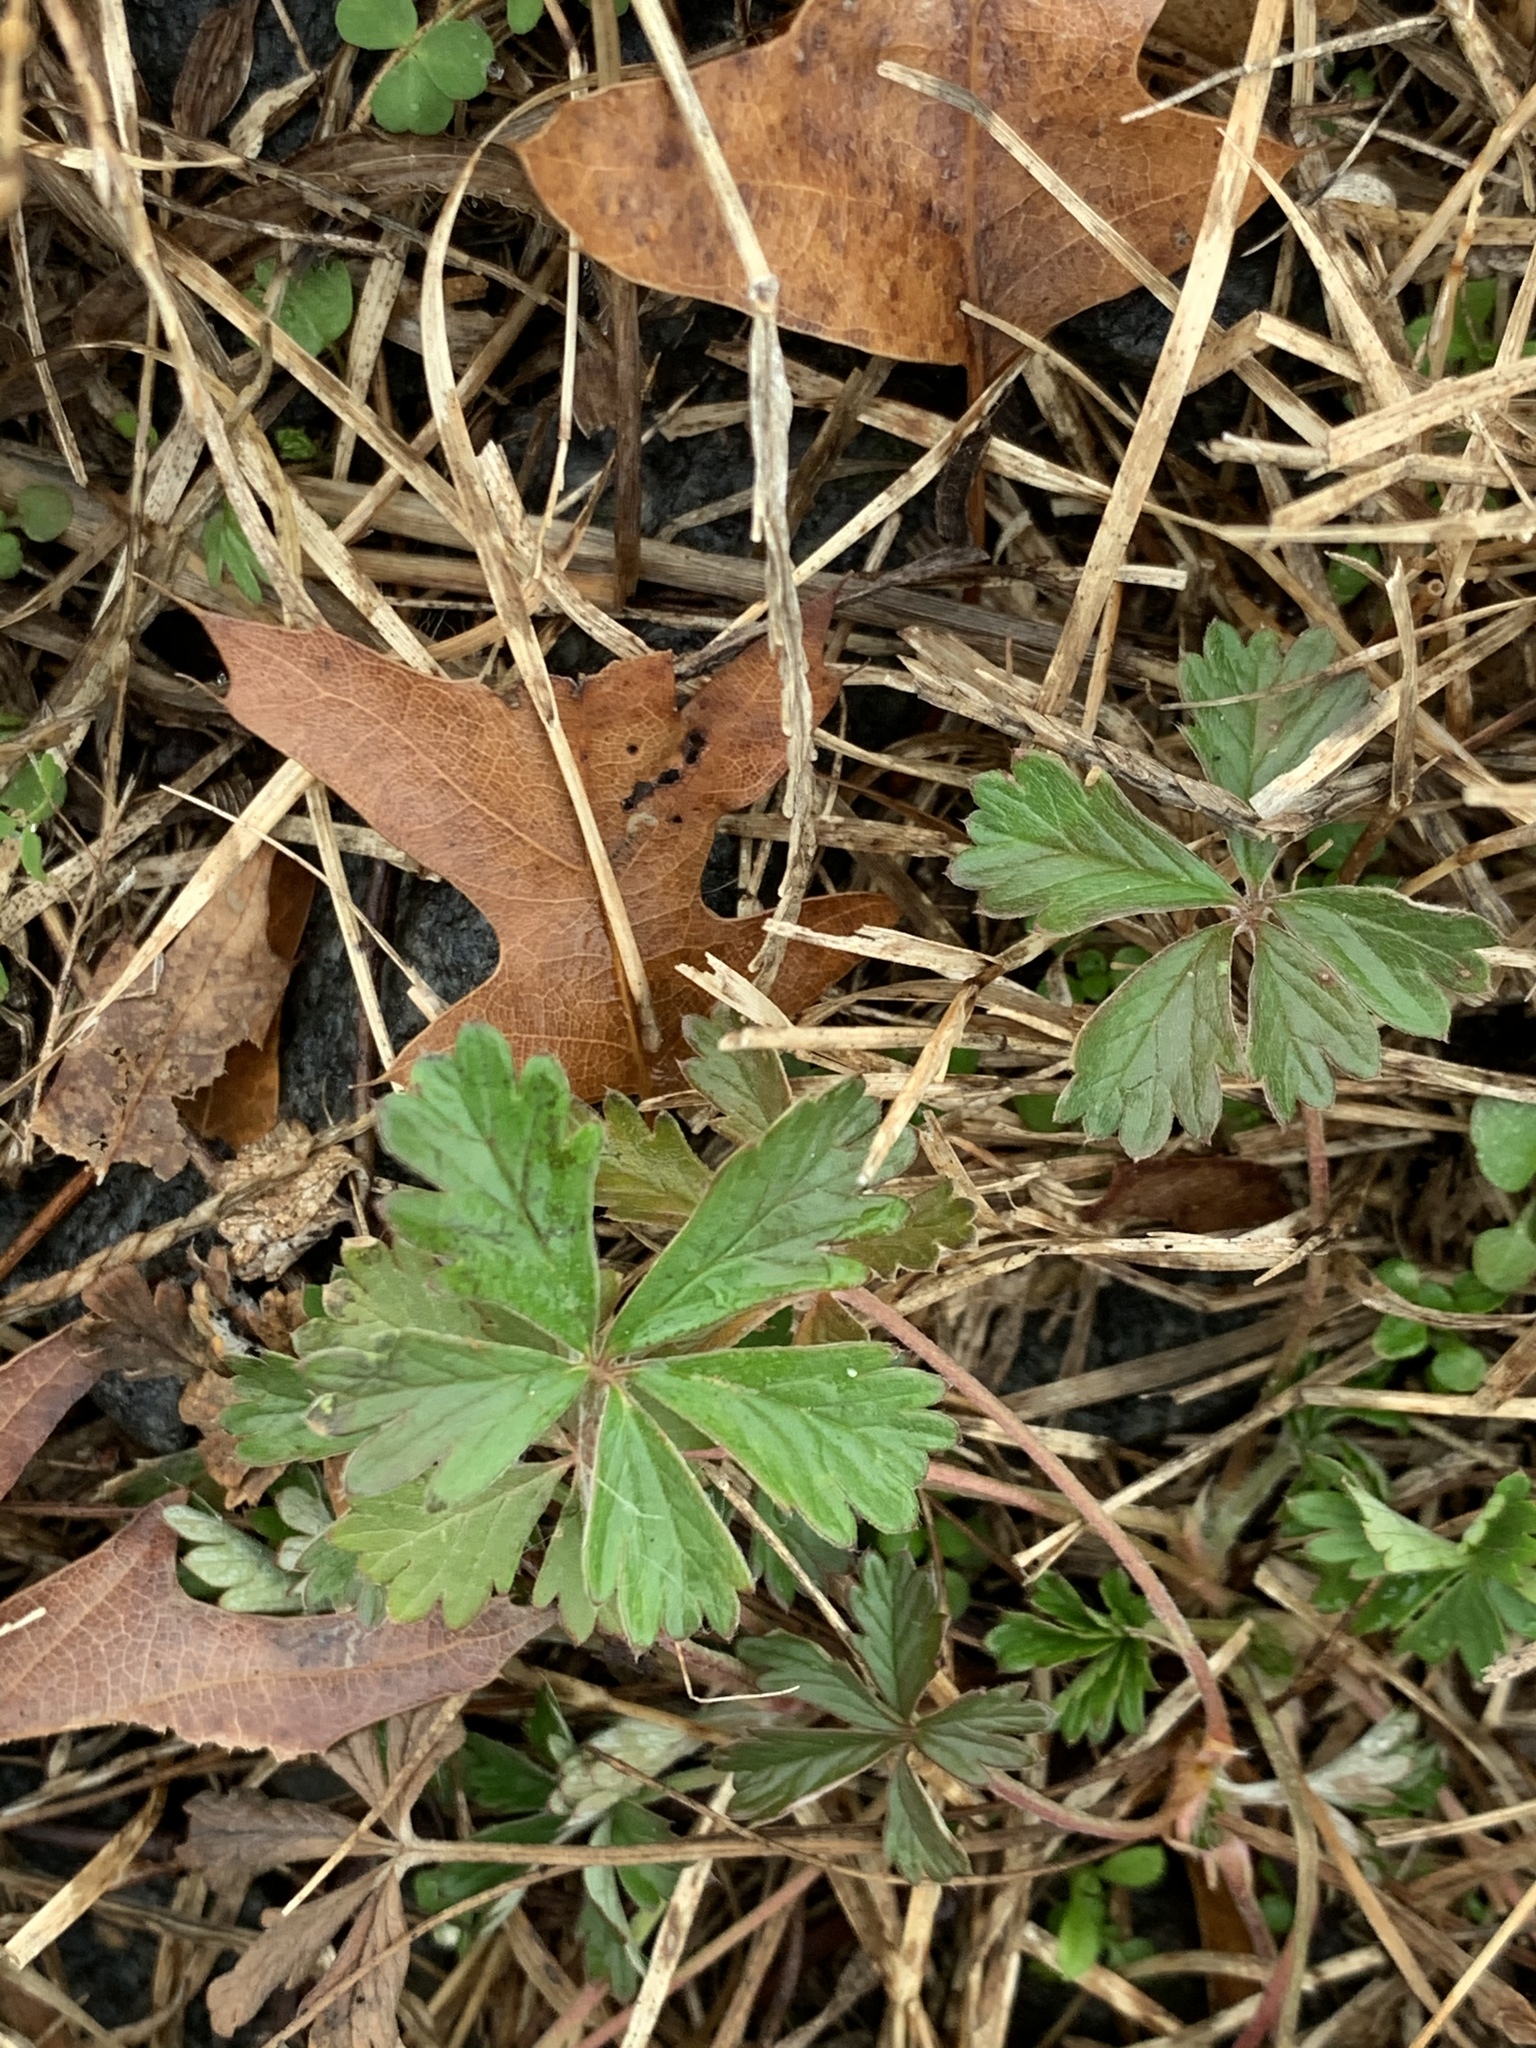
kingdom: Plantae
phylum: Tracheophyta
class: Magnoliopsida
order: Rosales
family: Rosaceae
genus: Potentilla
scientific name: Potentilla argentea
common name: Hoary cinquefoil
